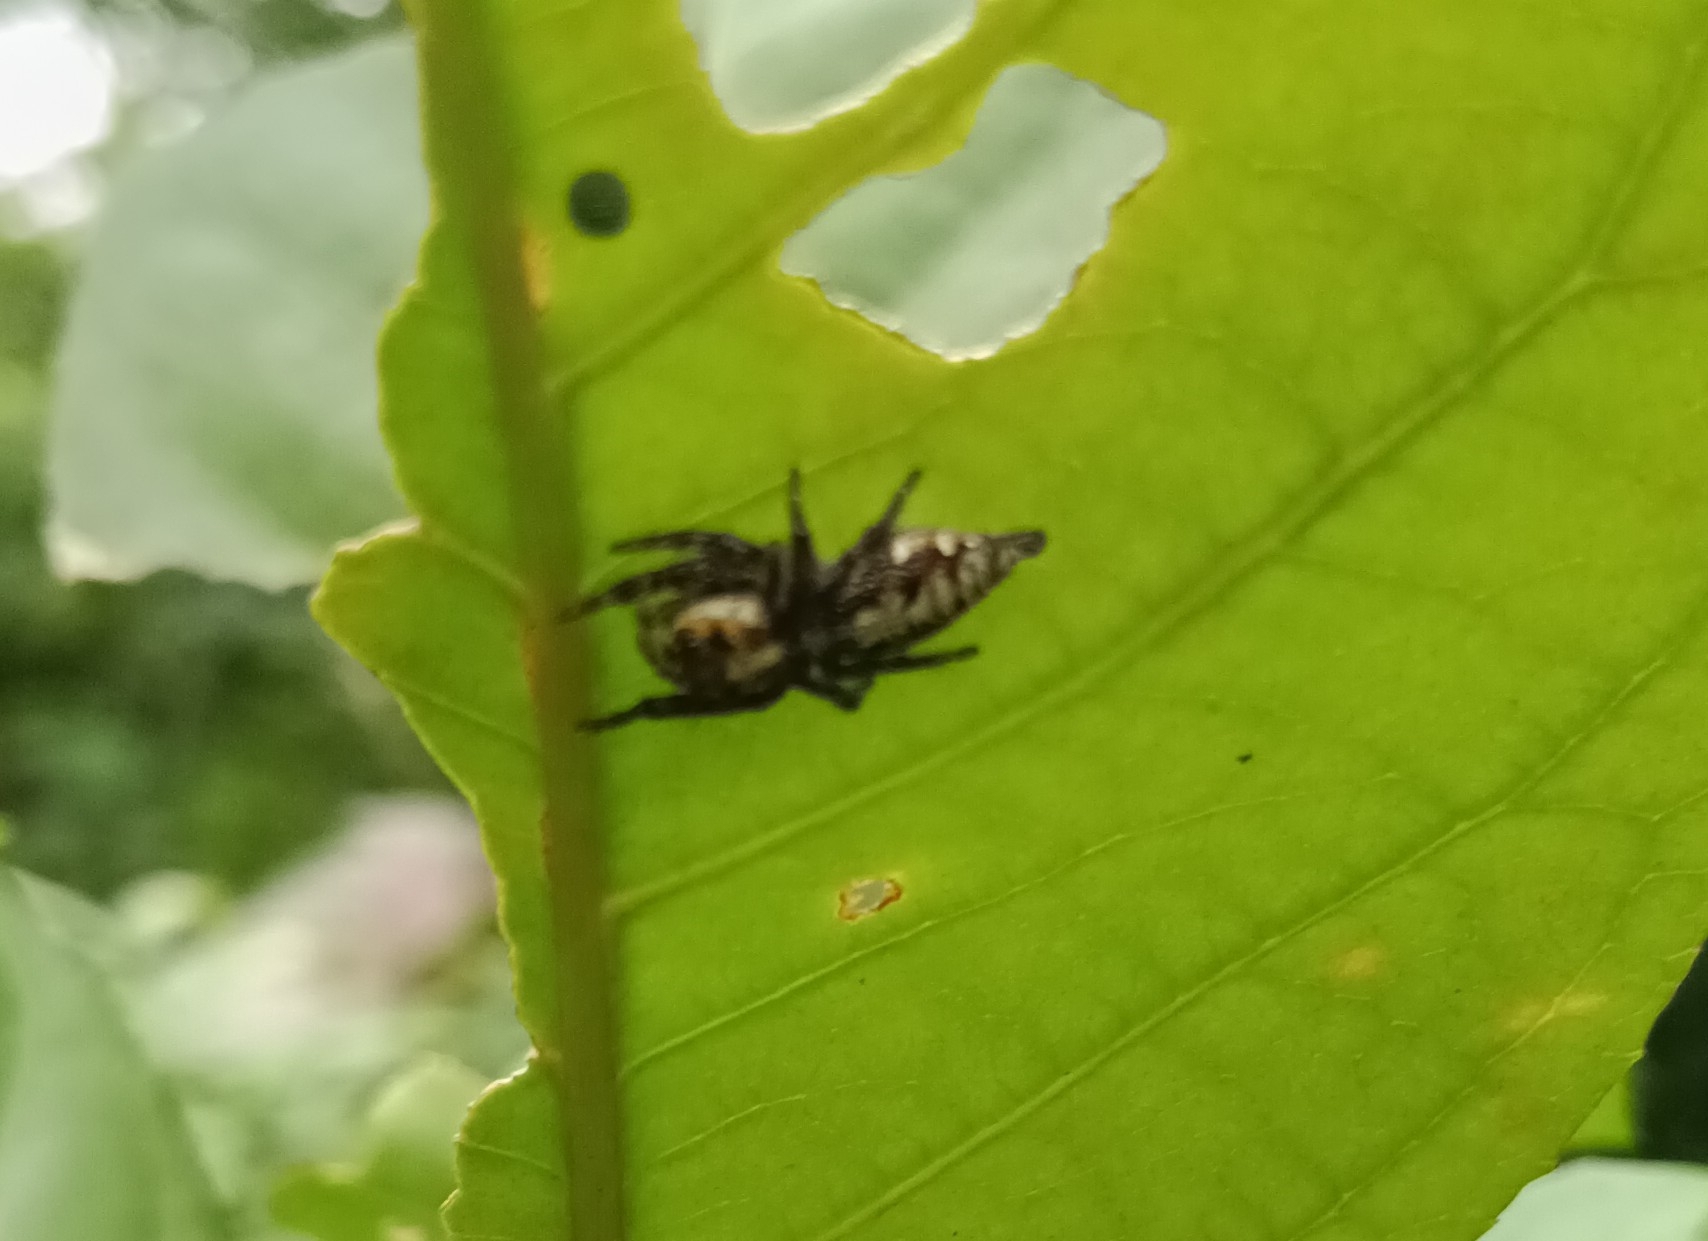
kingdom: Animalia
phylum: Arthropoda
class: Arachnida
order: Araneae
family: Salticidae
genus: Hyllus
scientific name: Hyllus semicupreus
